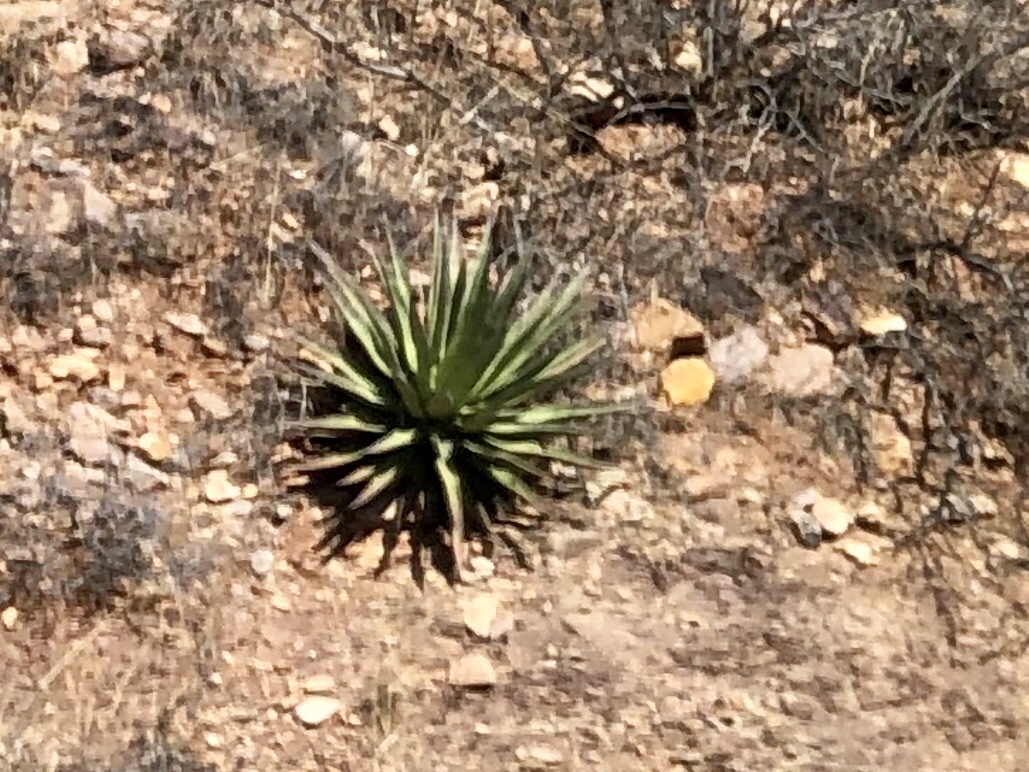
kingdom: Plantae
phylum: Tracheophyta
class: Liliopsida
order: Asparagales
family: Asparagaceae
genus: Agave
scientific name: Agave palmeri
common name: Palmer agave
